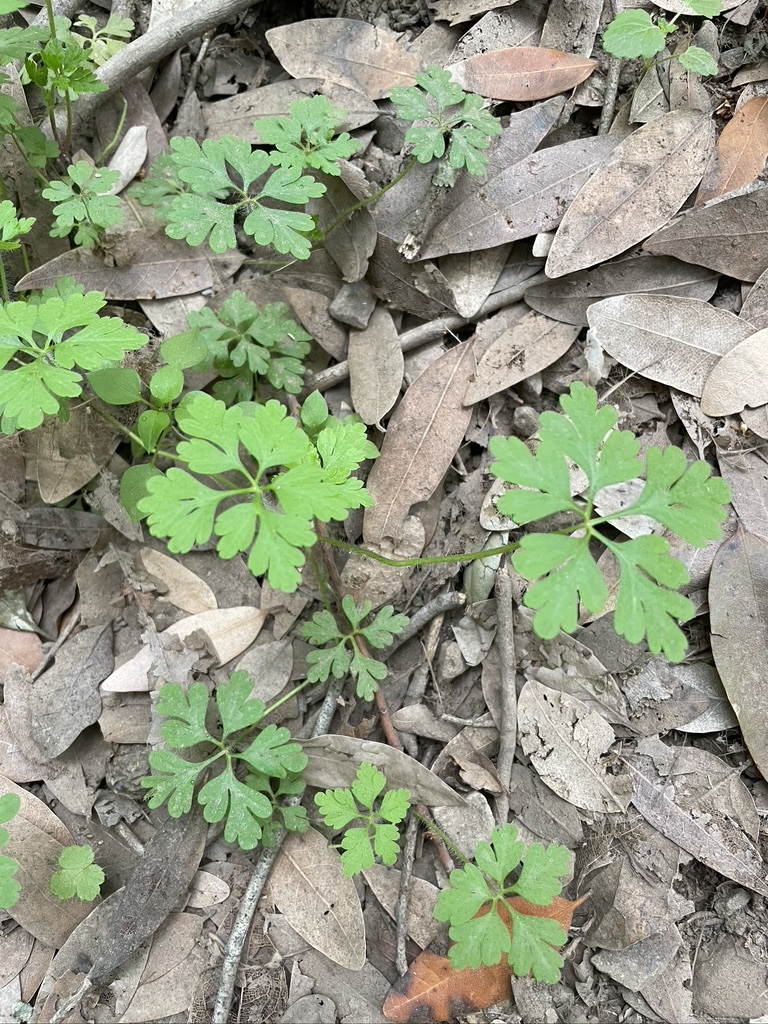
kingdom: Plantae
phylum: Tracheophyta
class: Magnoliopsida
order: Geraniales
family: Geraniaceae
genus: Geranium
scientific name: Geranium
